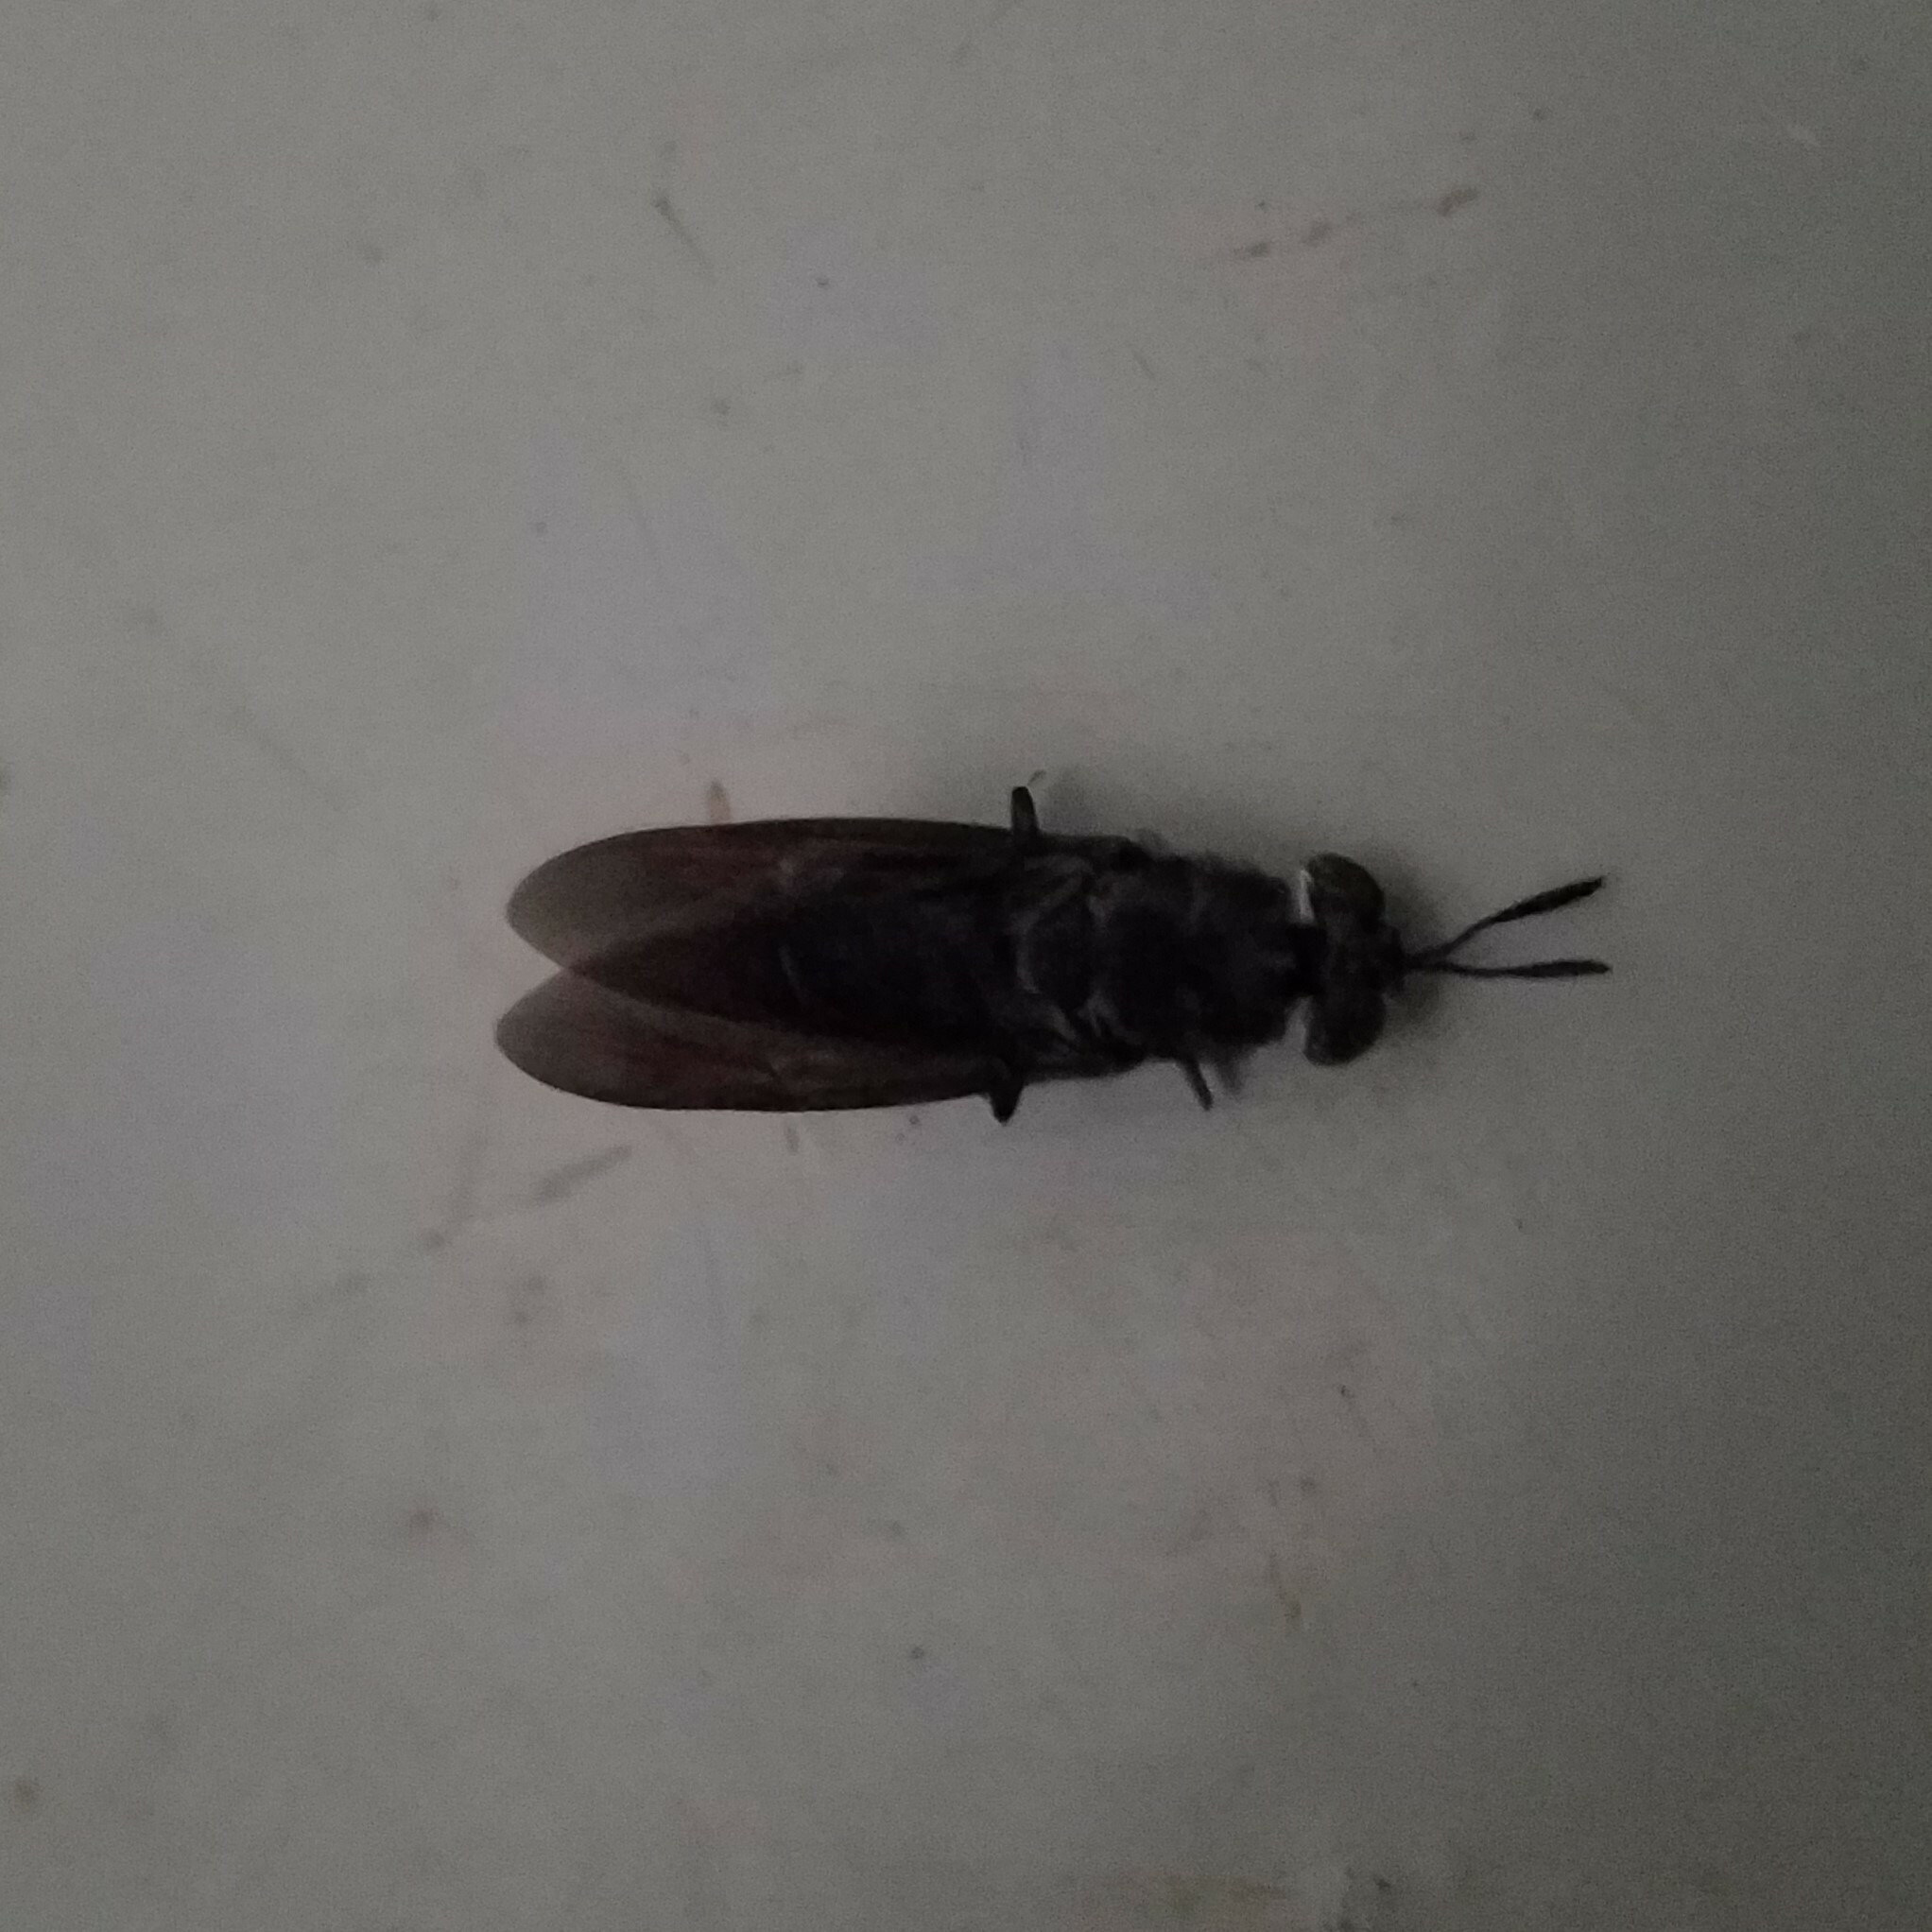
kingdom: Animalia
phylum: Arthropoda
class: Insecta
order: Diptera
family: Stratiomyidae
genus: Hermetia
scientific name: Hermetia illucens
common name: Black soldier fly
